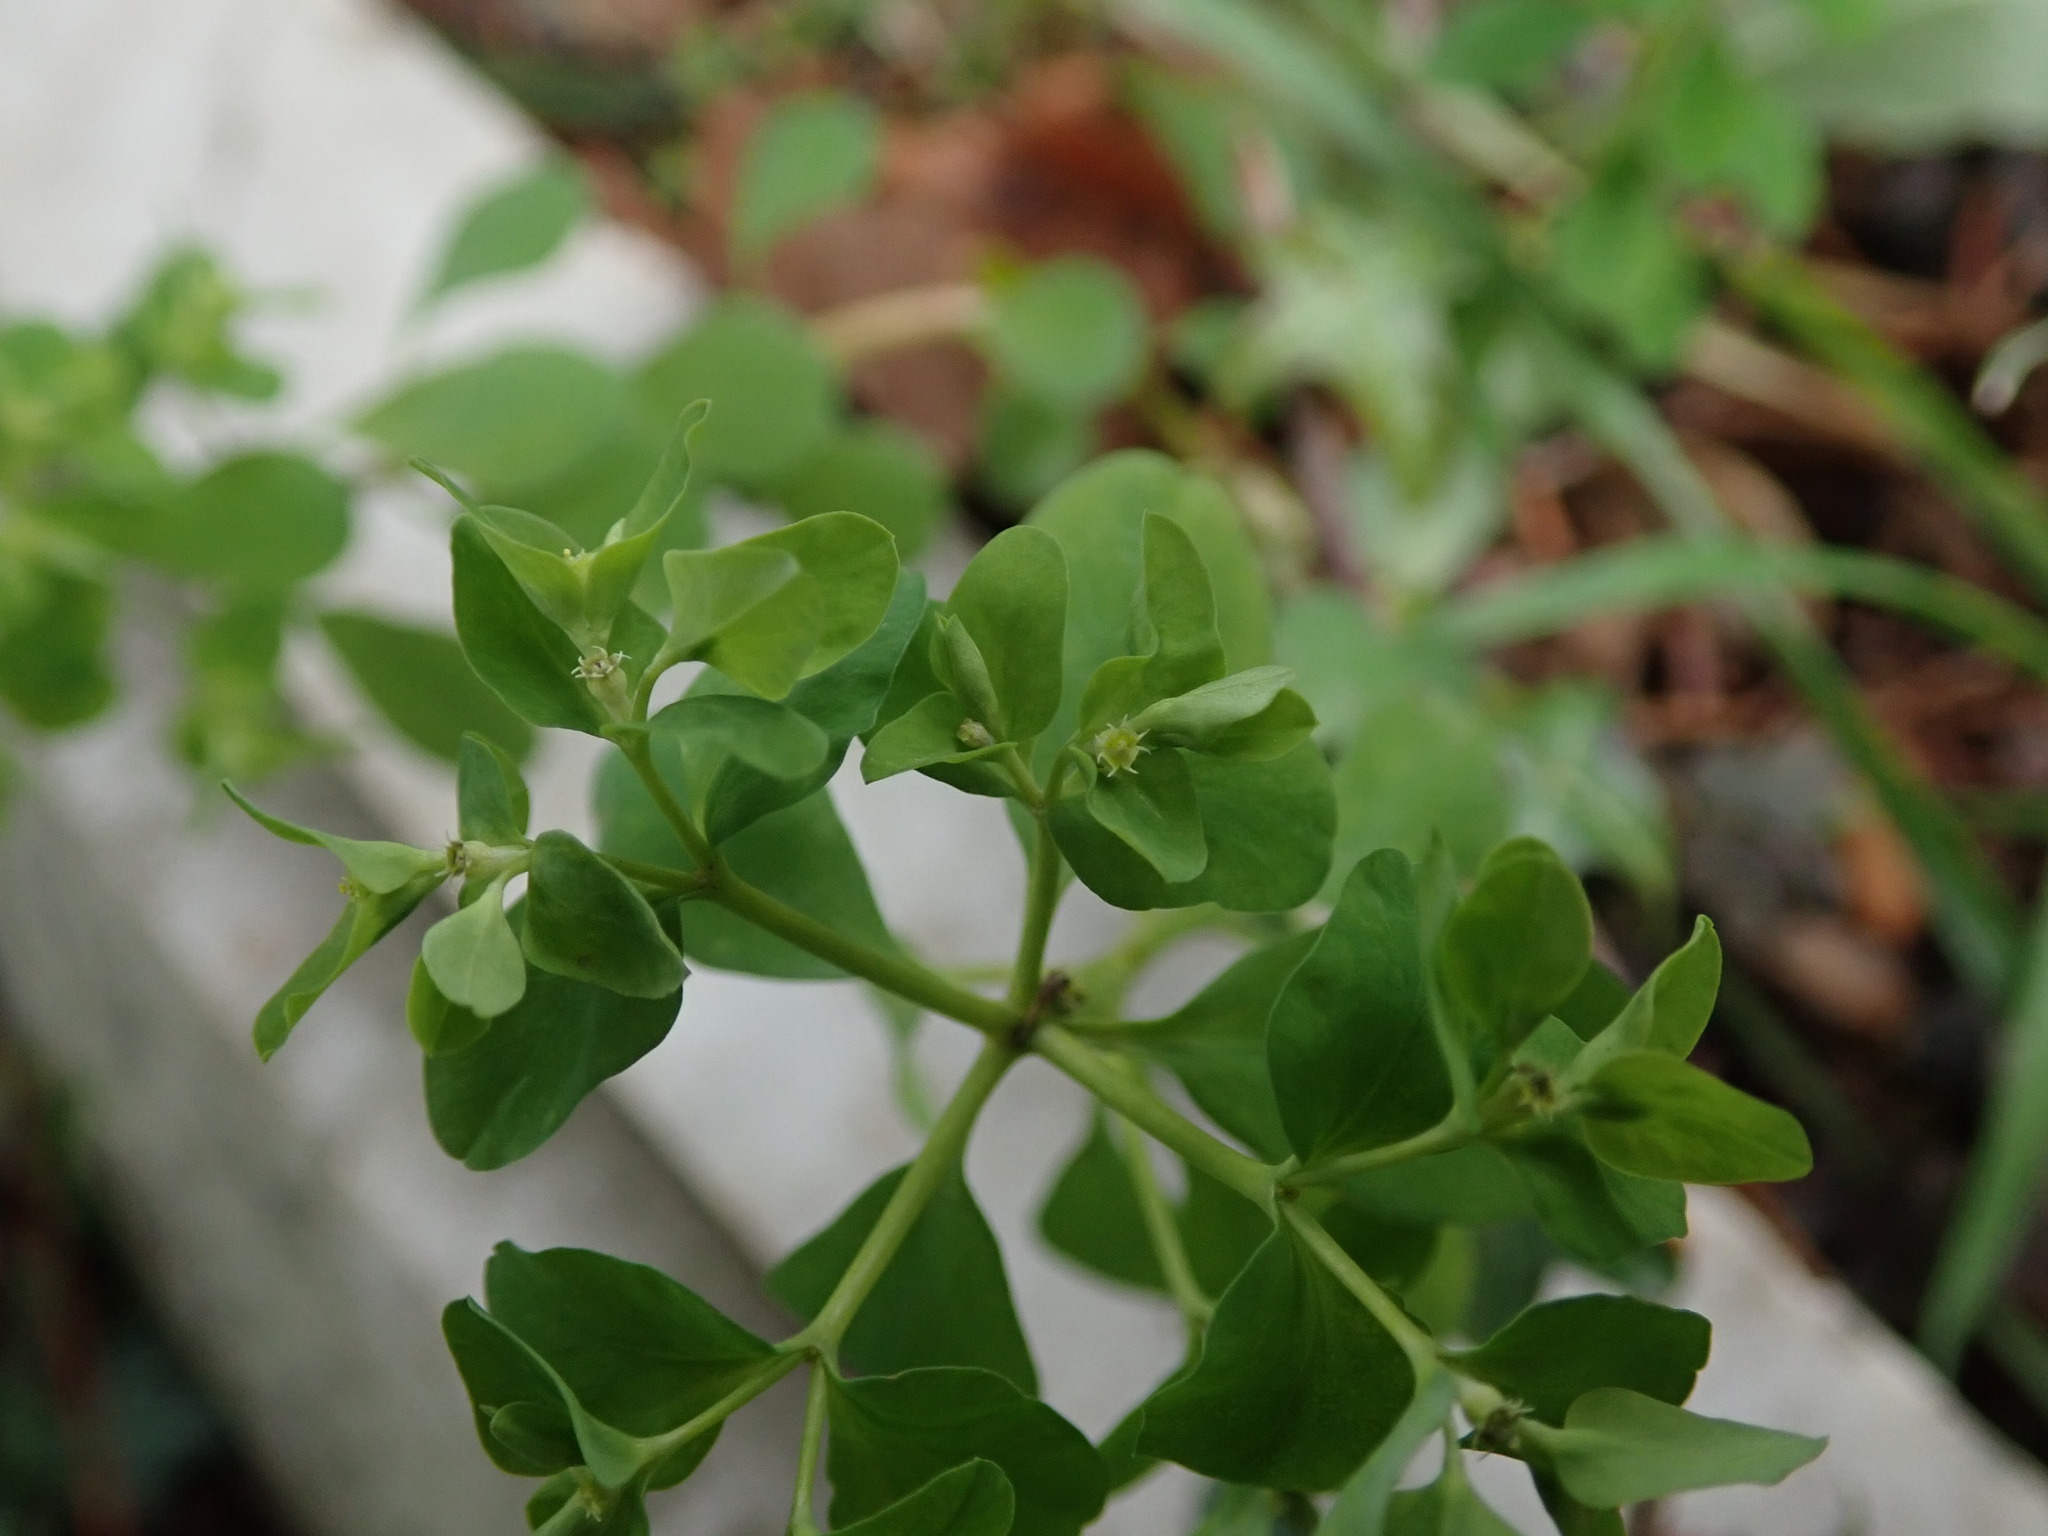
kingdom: Plantae
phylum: Tracheophyta
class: Magnoliopsida
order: Malpighiales
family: Euphorbiaceae
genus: Euphorbia
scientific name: Euphorbia peplus
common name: Petty spurge
